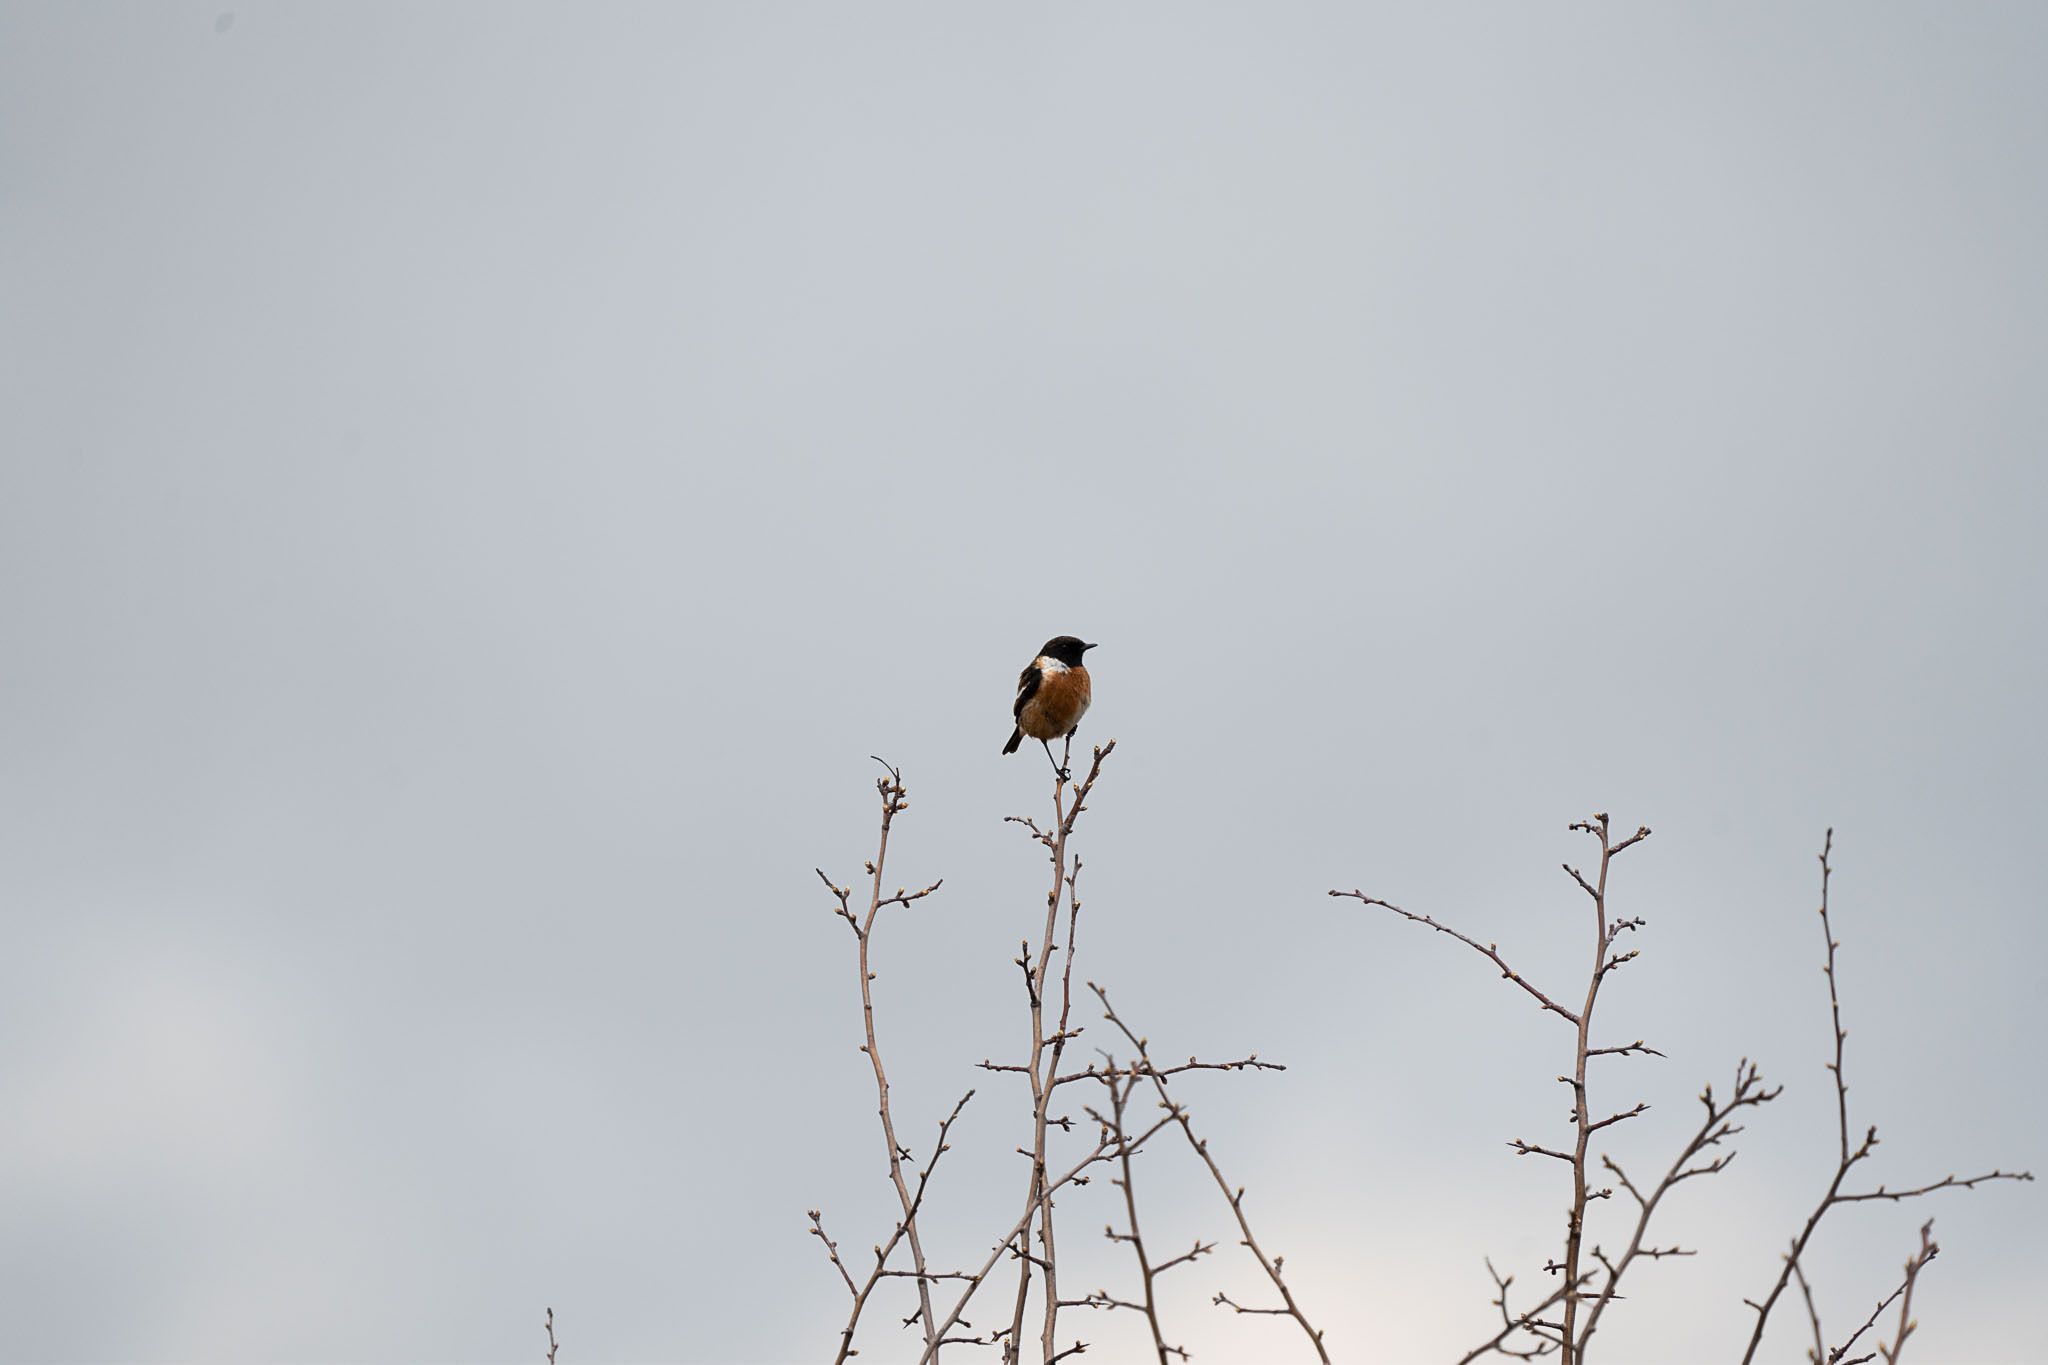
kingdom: Animalia
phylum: Chordata
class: Aves
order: Passeriformes
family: Muscicapidae
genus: Saxicola
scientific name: Saxicola rubicola
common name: European stonechat
